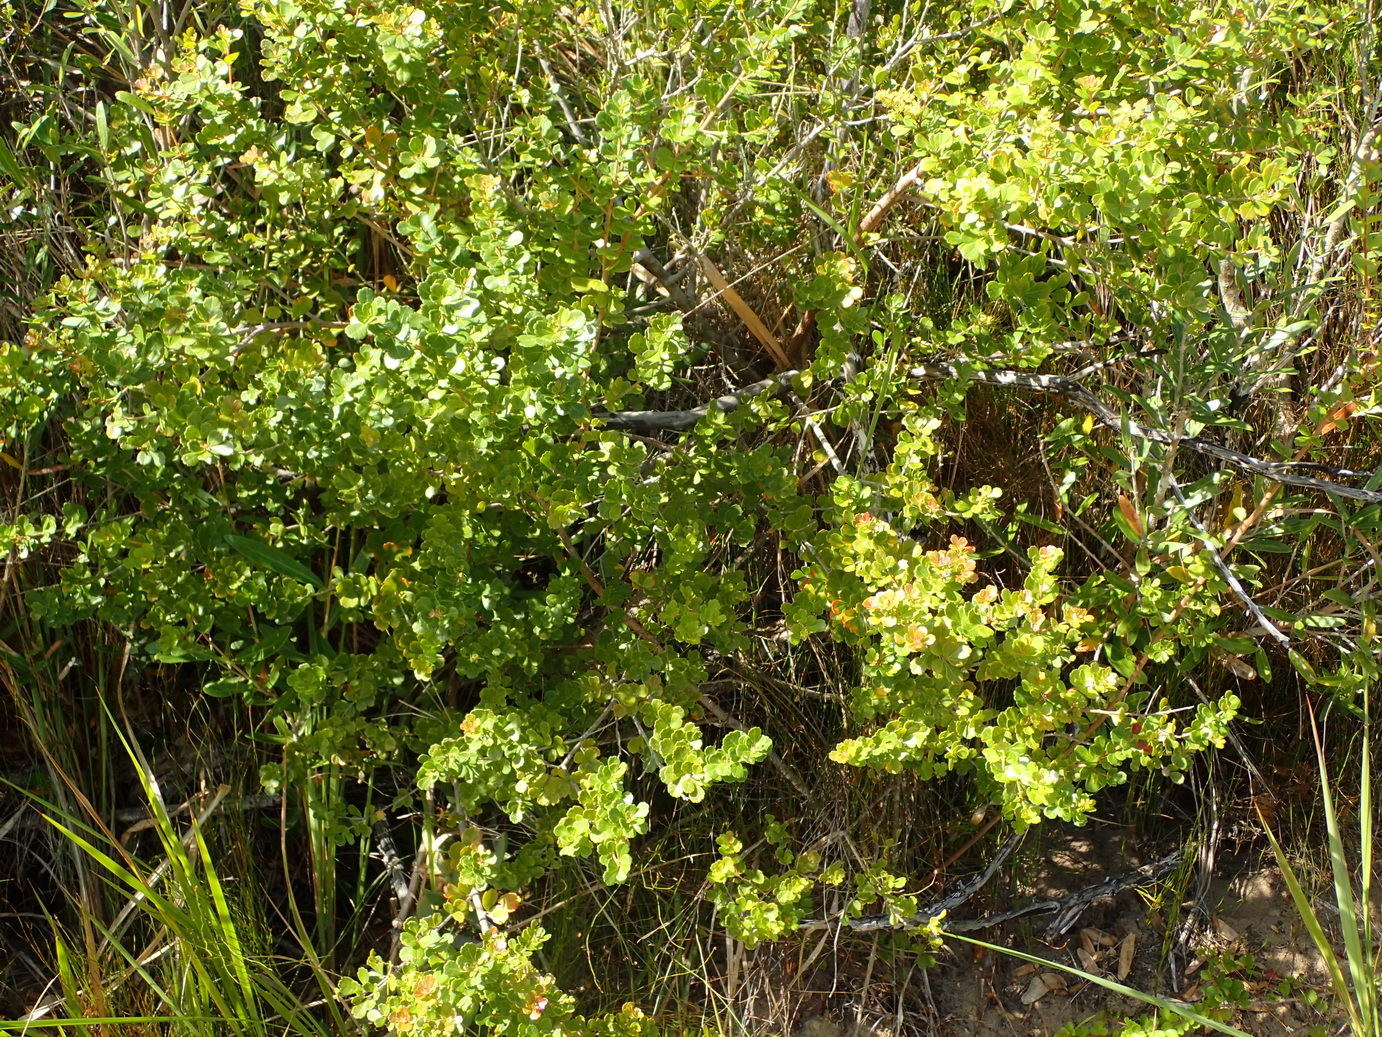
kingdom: Plantae
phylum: Tracheophyta
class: Magnoliopsida
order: Sapindales
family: Anacardiaceae
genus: Searsia
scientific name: Searsia crenata
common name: Crowberry
